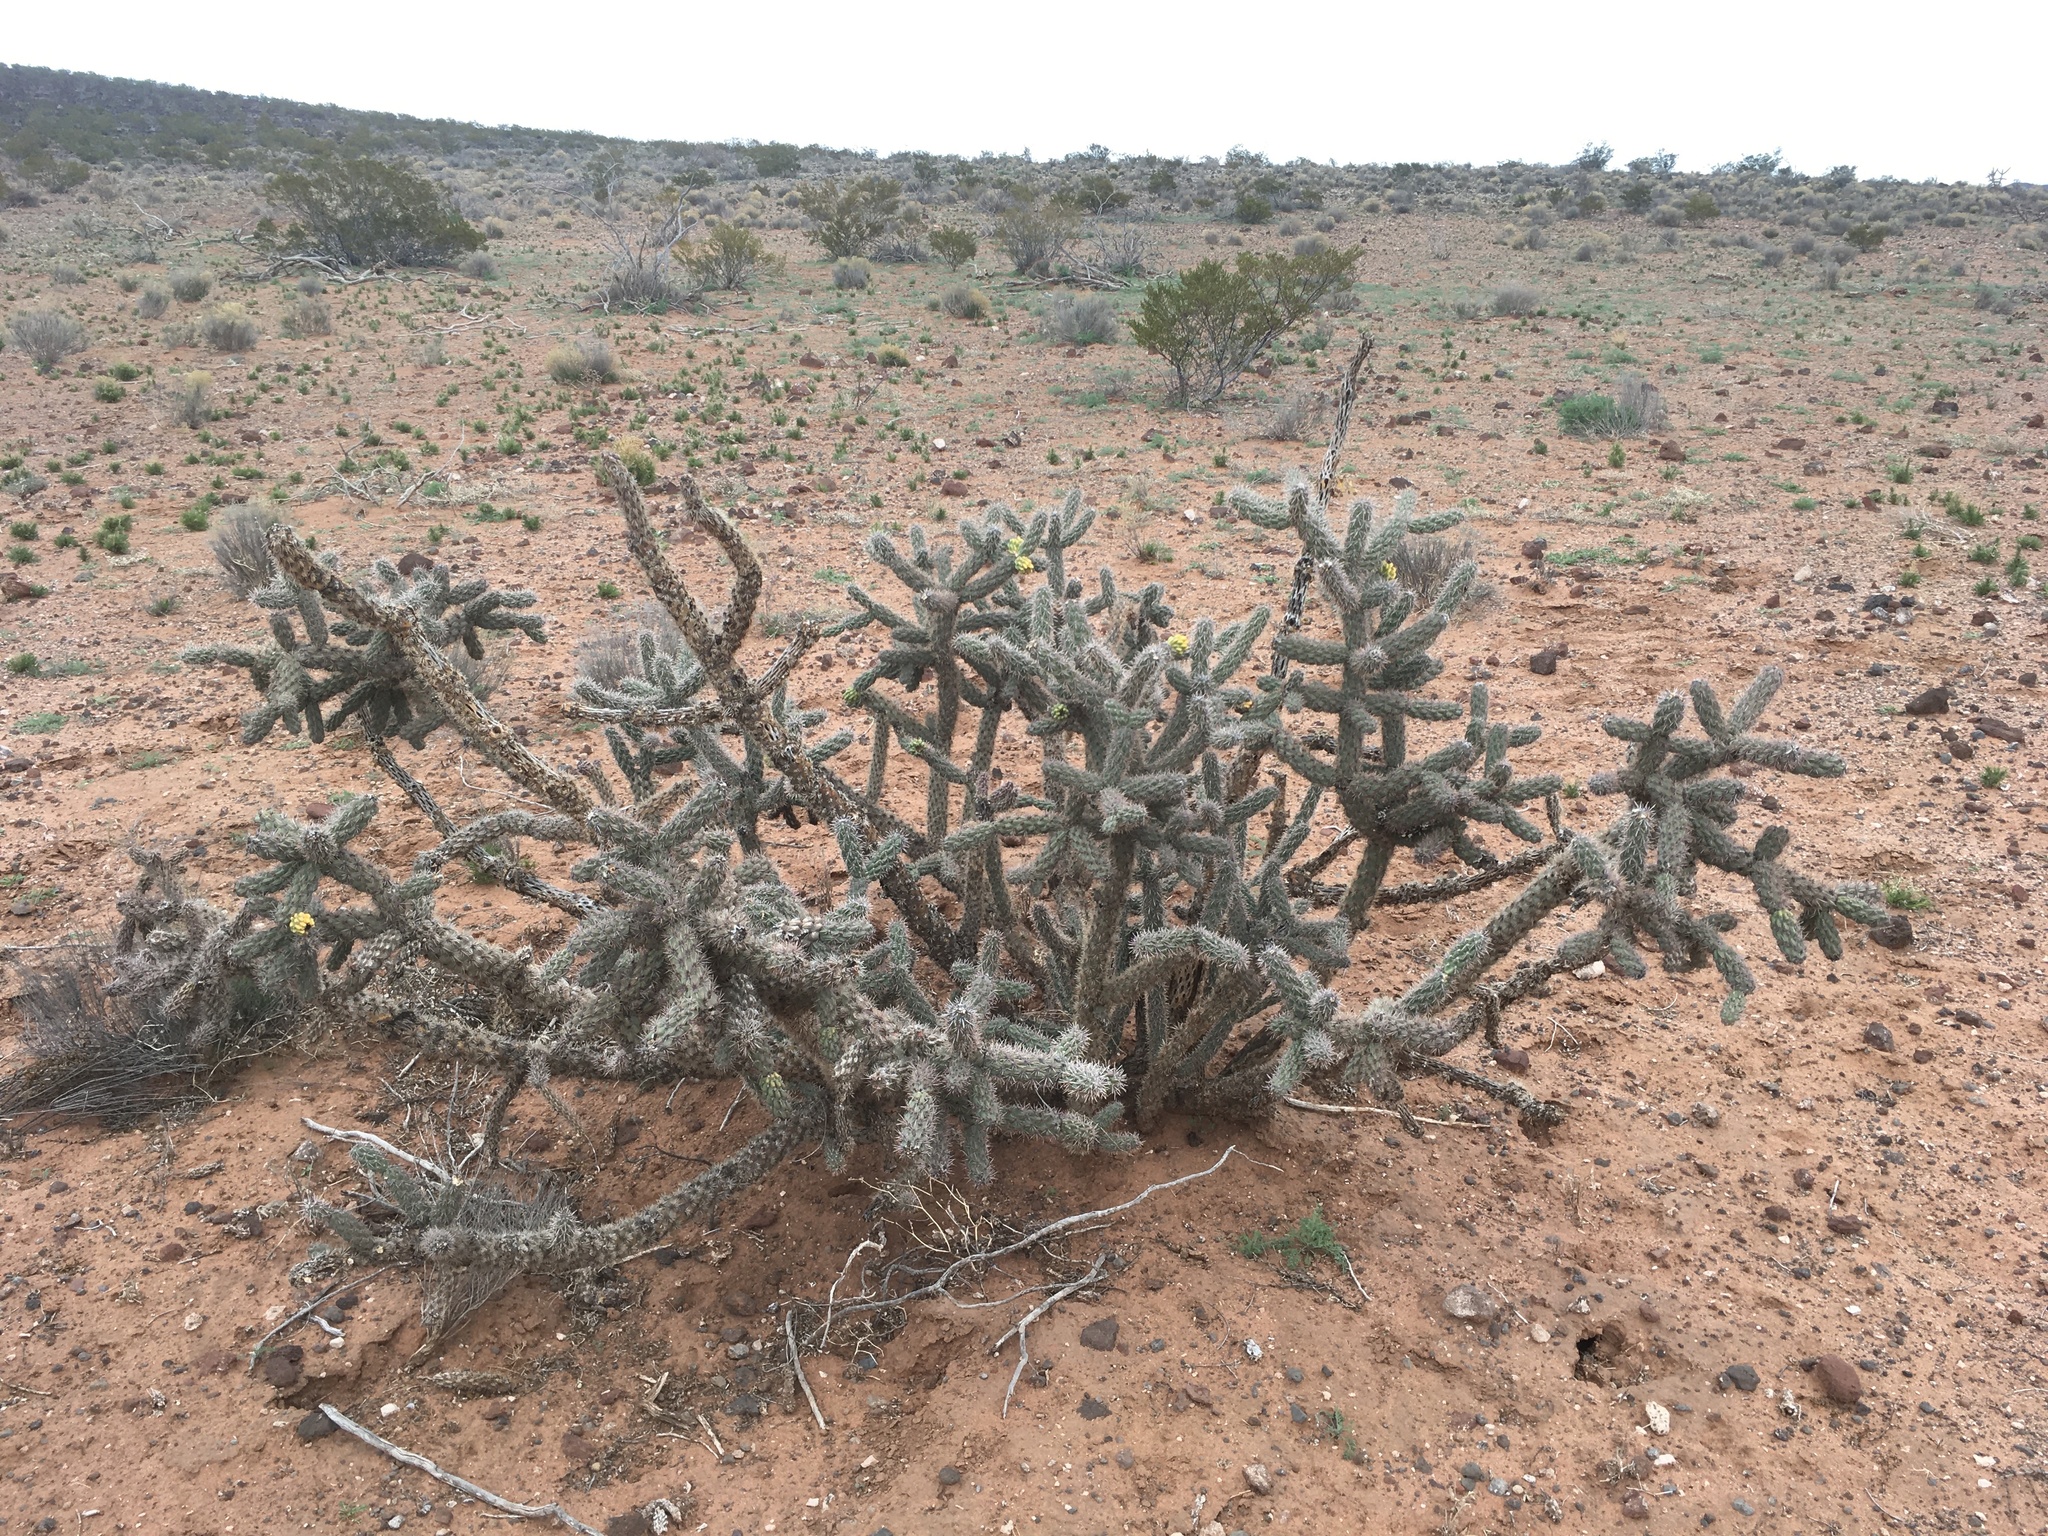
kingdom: Plantae
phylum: Tracheophyta
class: Magnoliopsida
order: Caryophyllales
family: Cactaceae
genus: Cylindropuntia
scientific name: Cylindropuntia imbricata
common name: Candelabrum cactus
